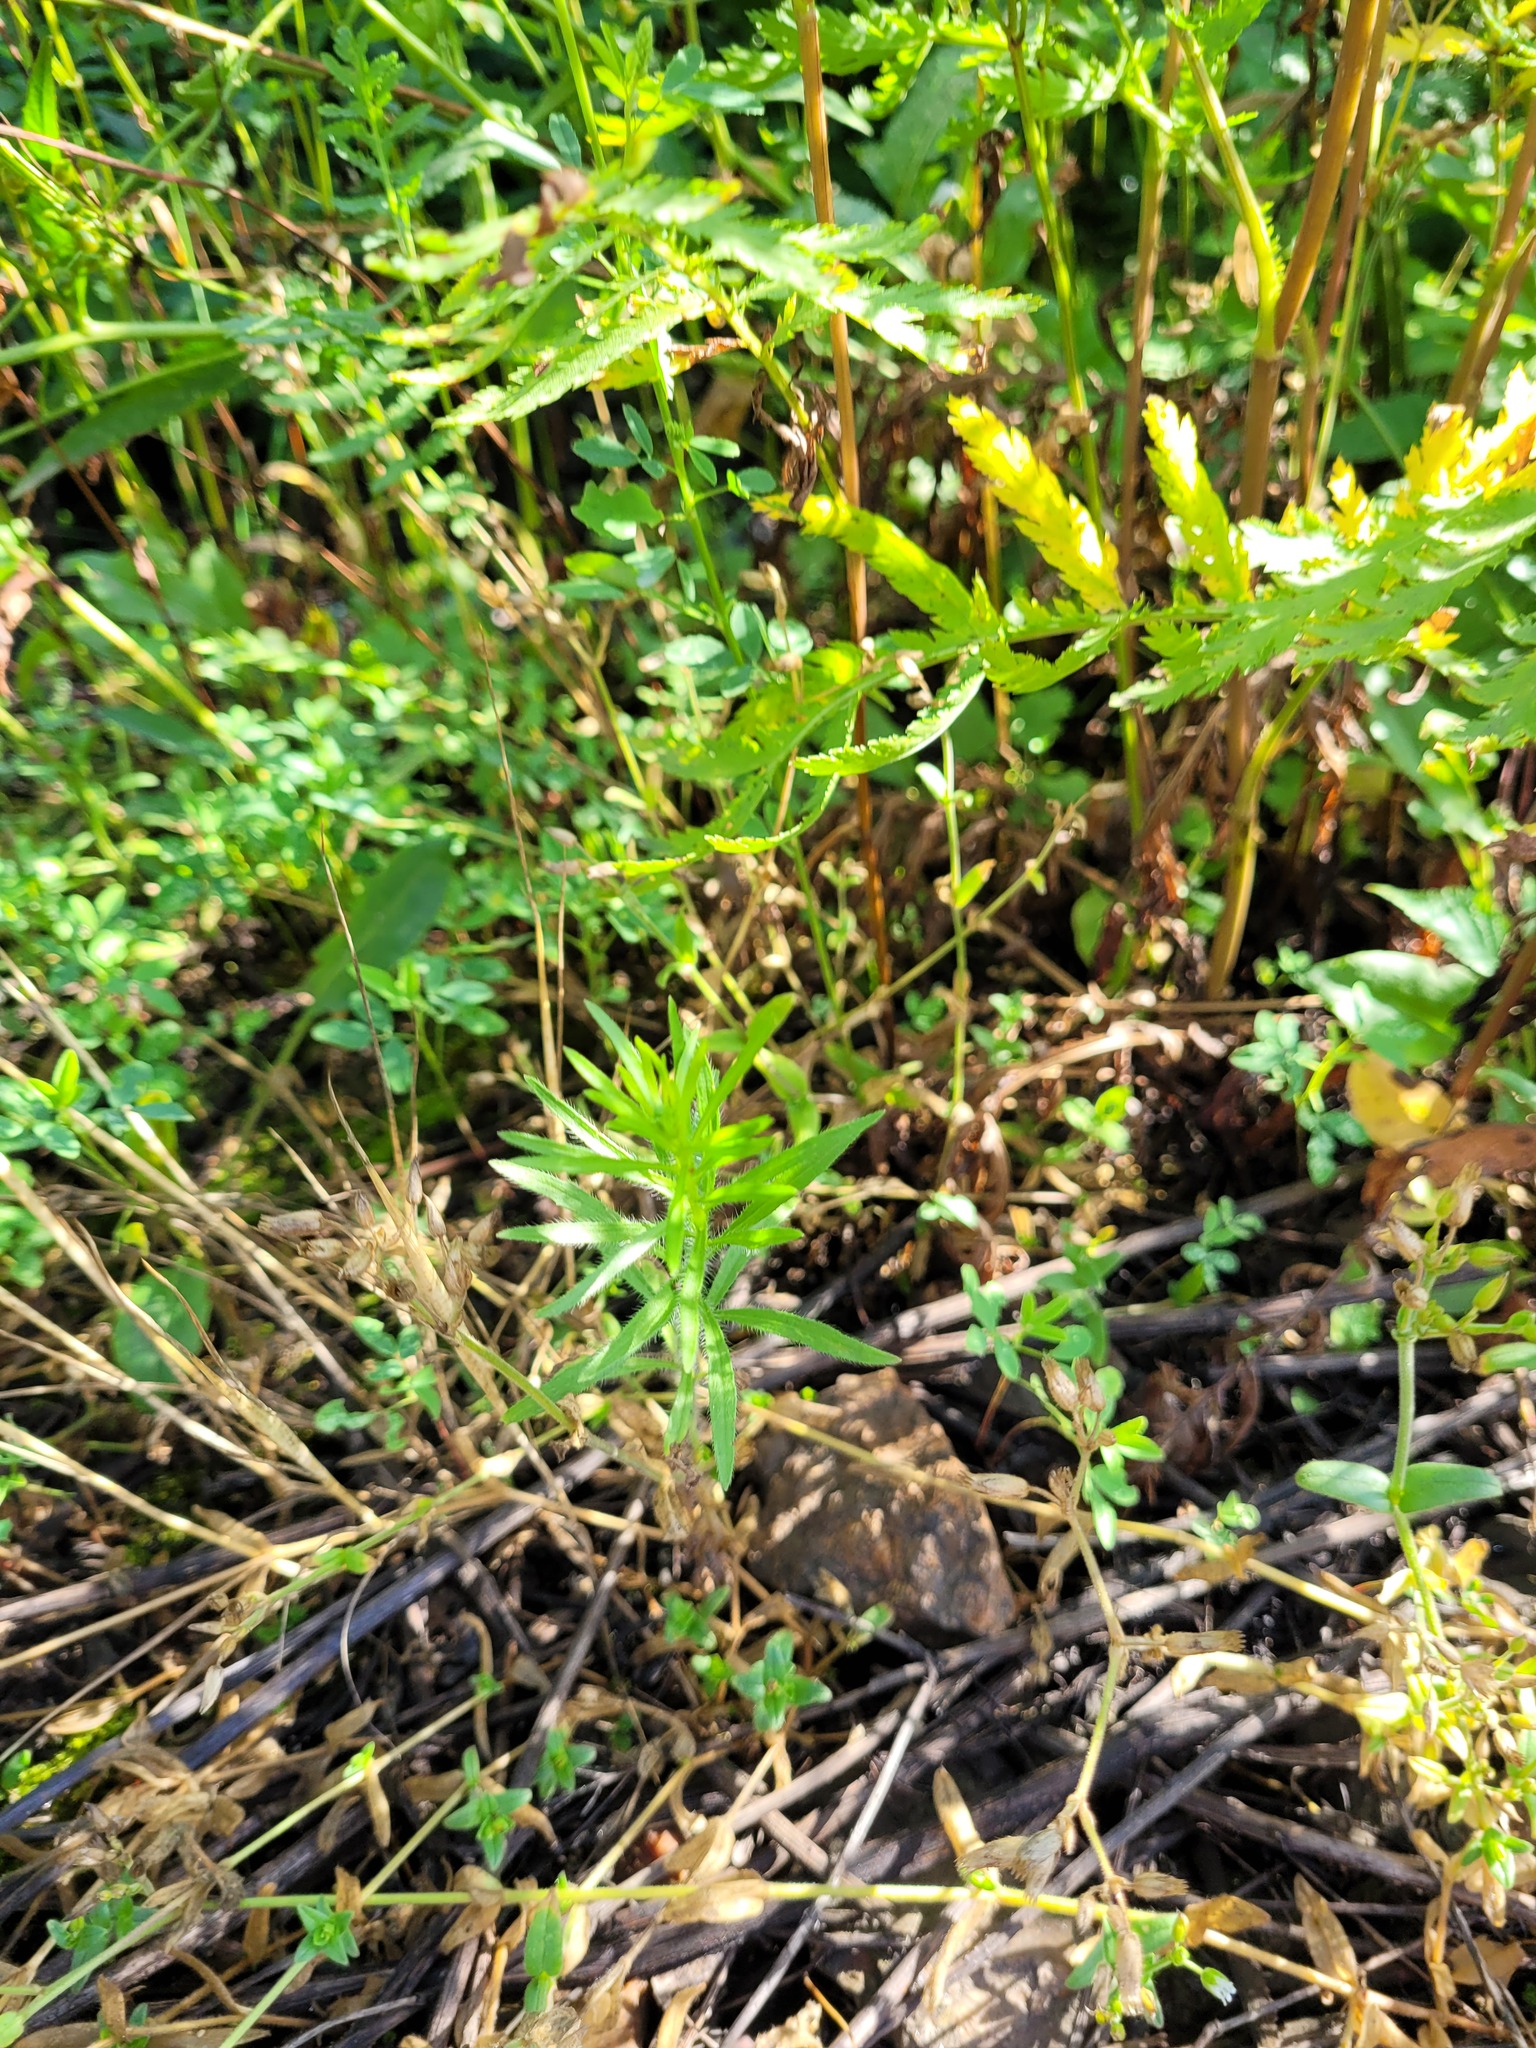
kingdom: Plantae
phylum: Tracheophyta
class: Magnoliopsida
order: Asterales
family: Asteraceae
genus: Erigeron
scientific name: Erigeron canadensis
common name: Canadian fleabane
